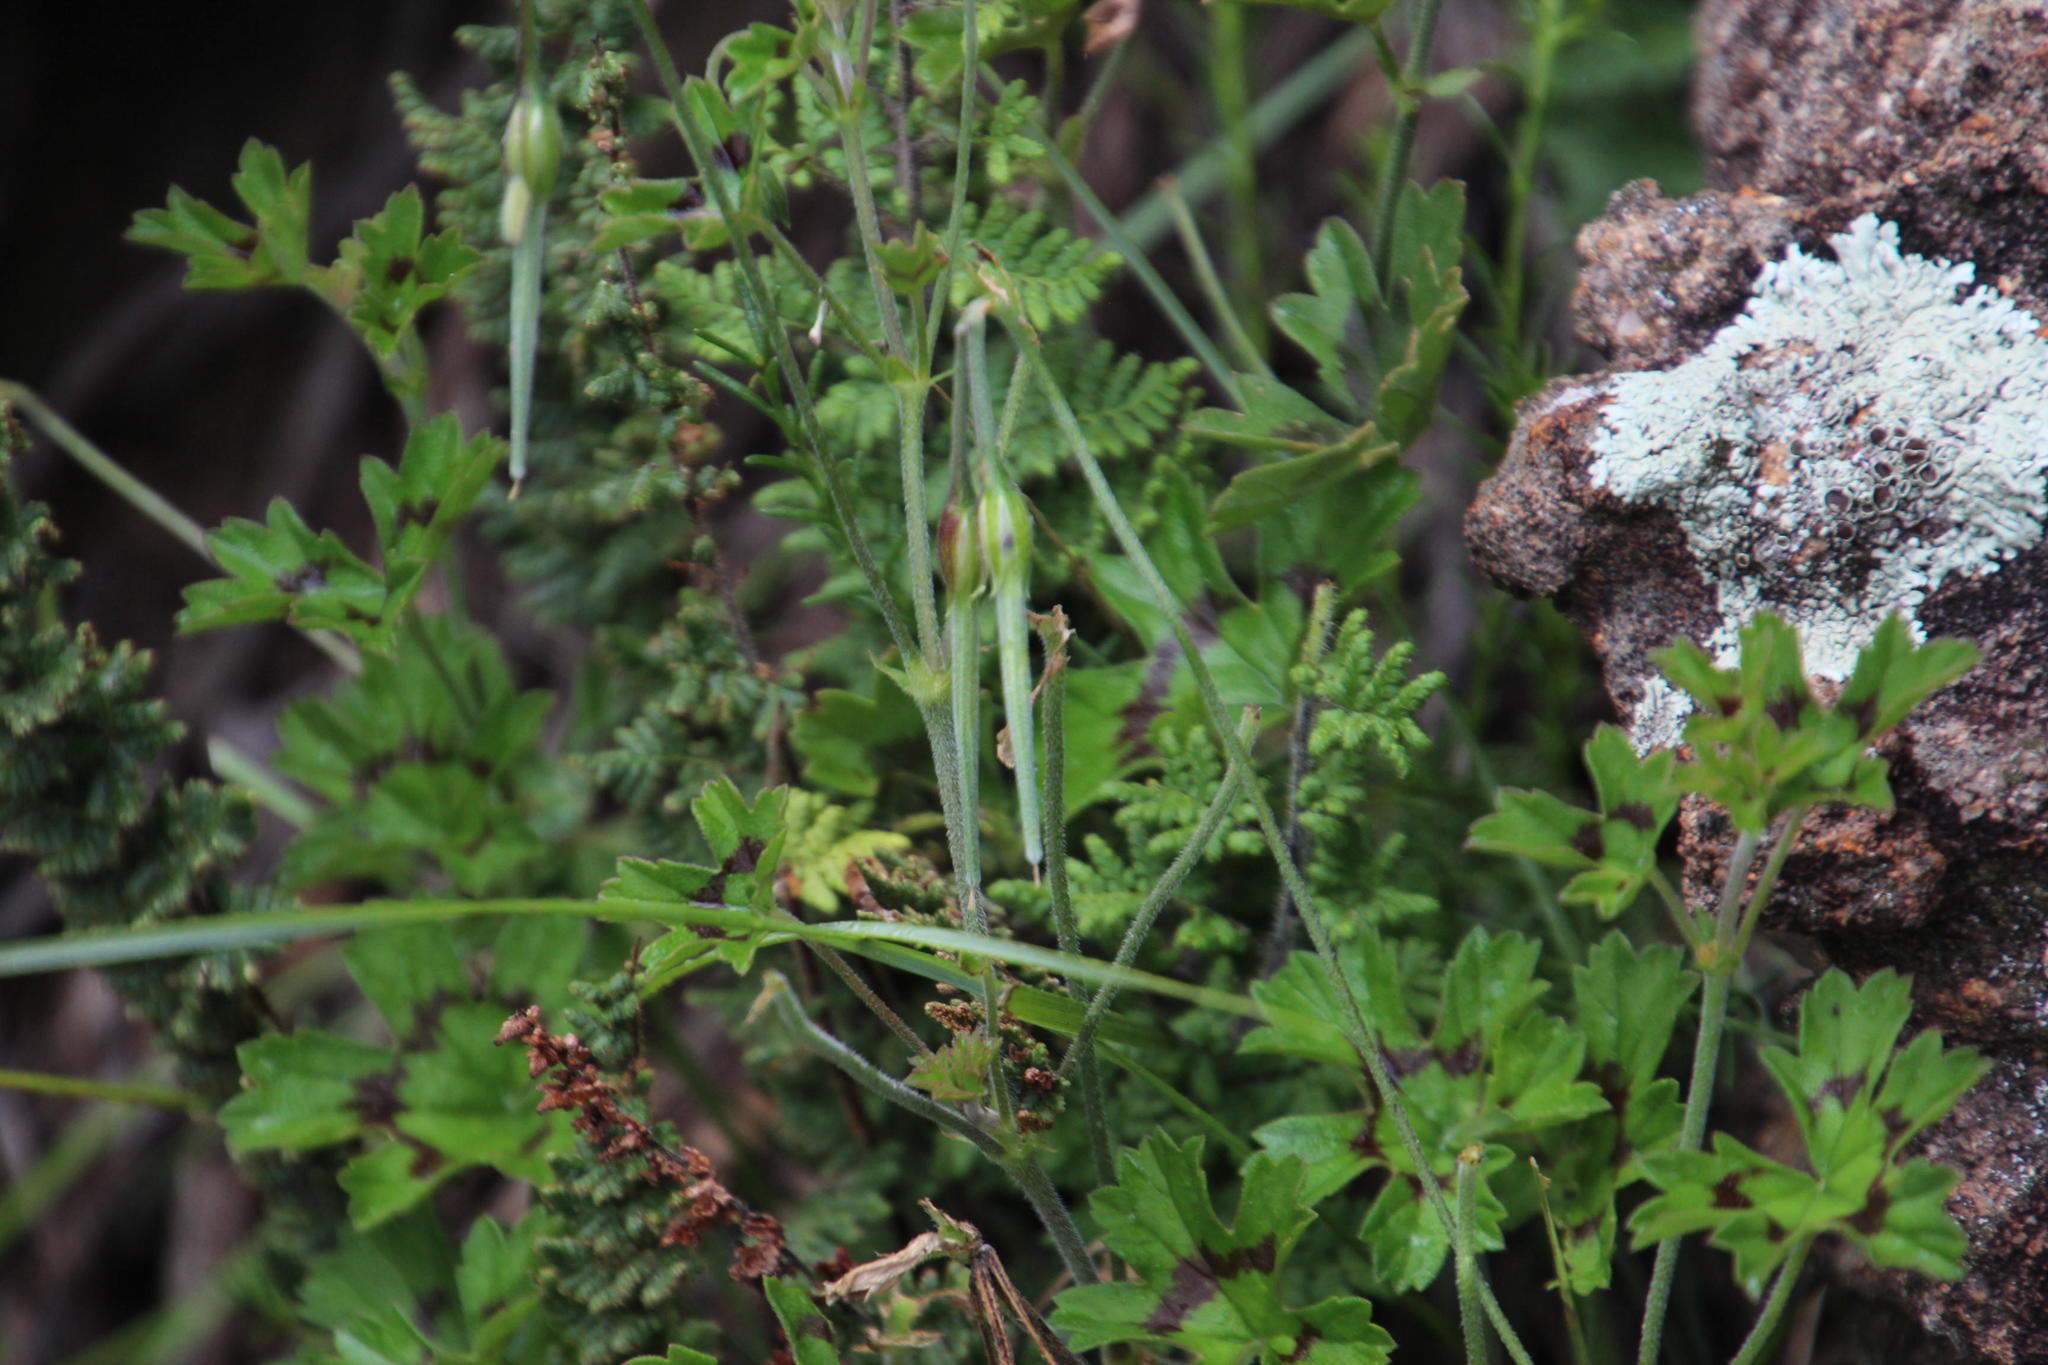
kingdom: Plantae
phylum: Tracheophyta
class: Magnoliopsida
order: Geraniales
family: Geraniaceae
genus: Pelargonium
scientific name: Pelargonium alchemilloides
